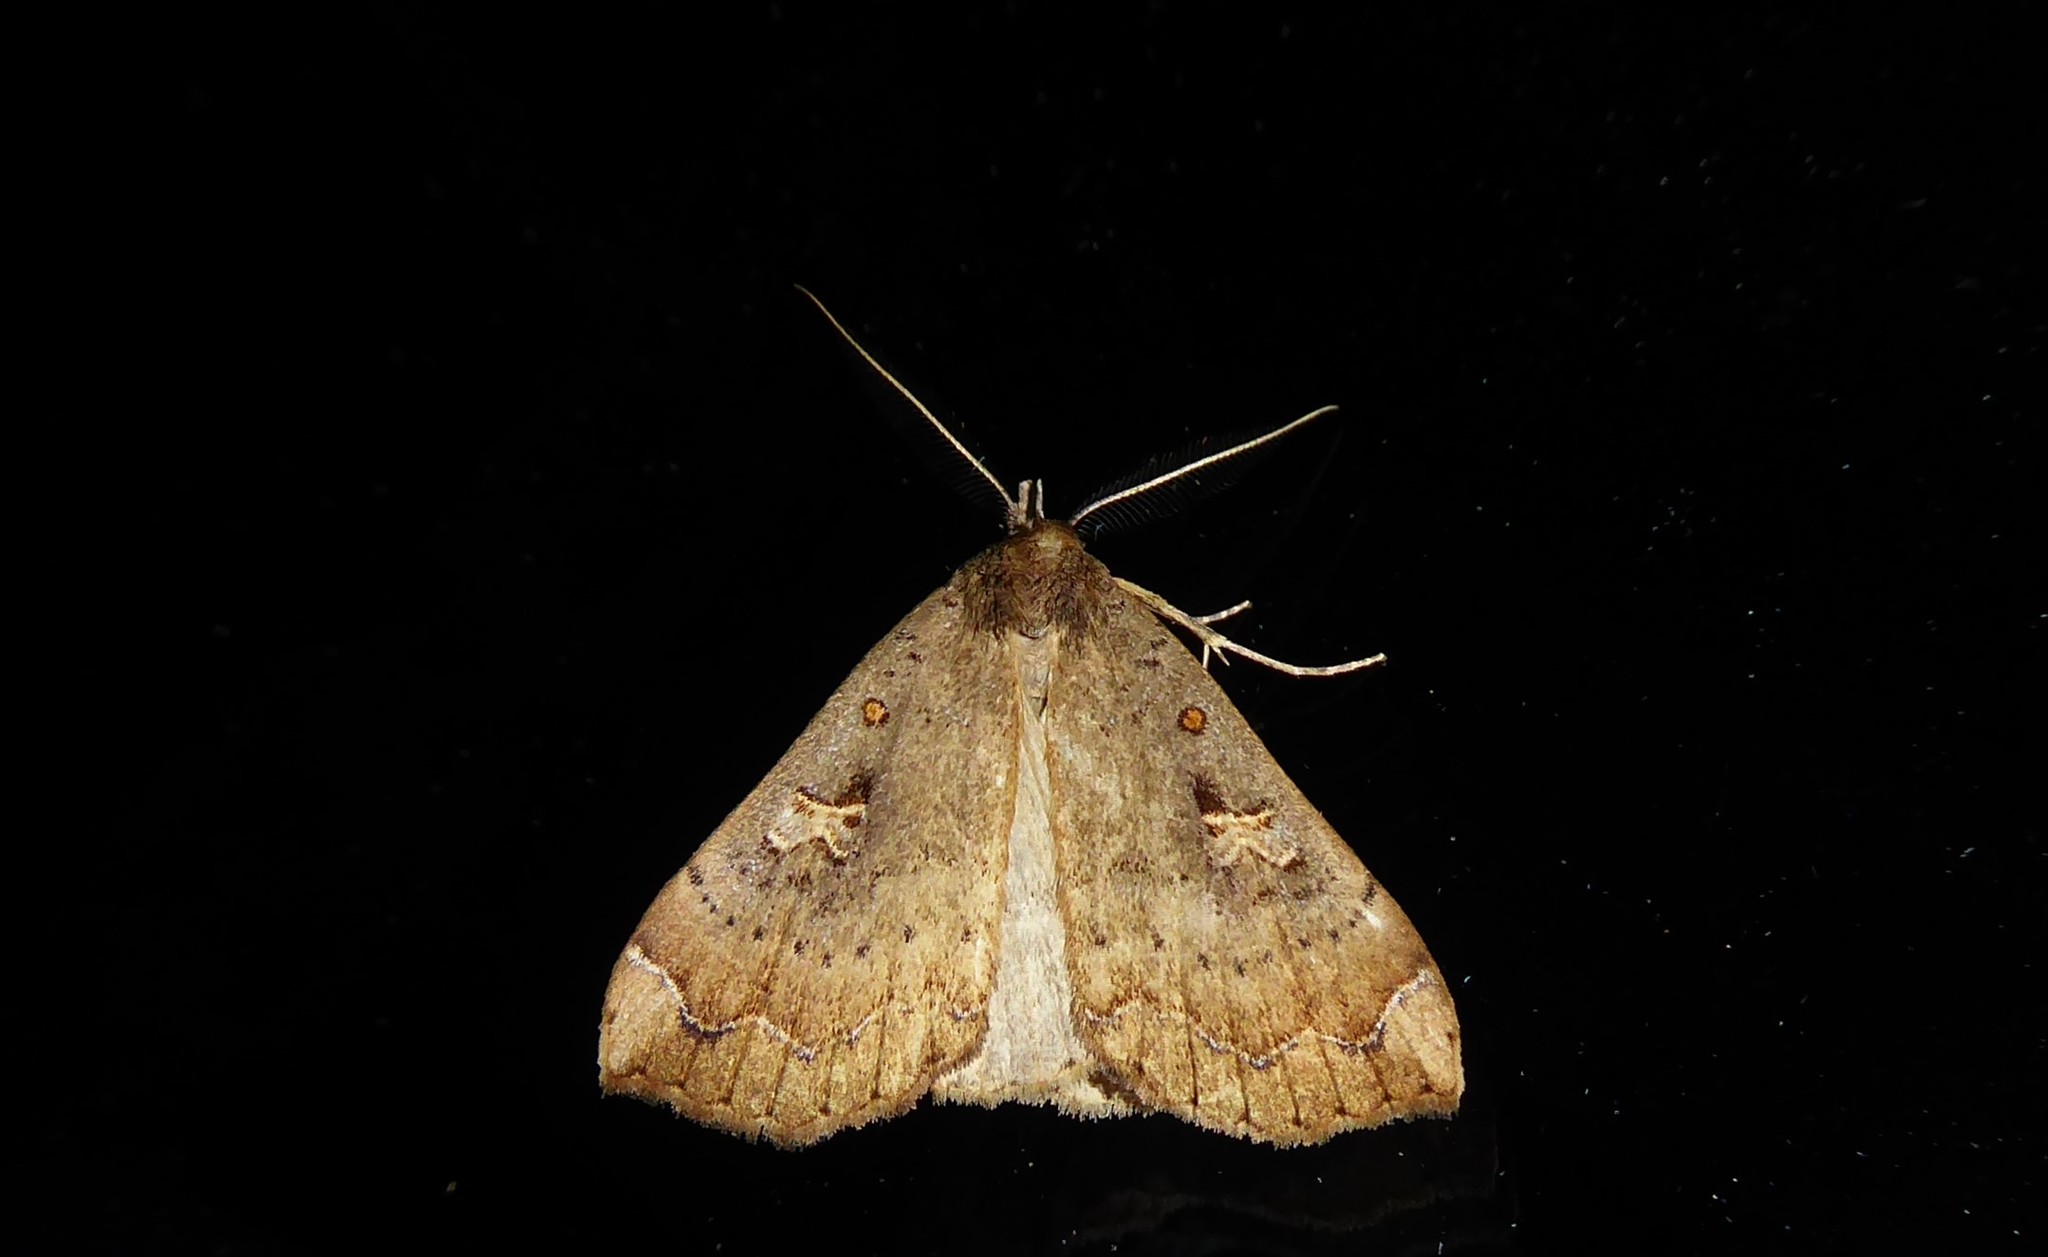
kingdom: Animalia
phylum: Arthropoda
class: Insecta
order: Lepidoptera
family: Erebidae
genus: Rhapsa
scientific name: Rhapsa scotosialis
